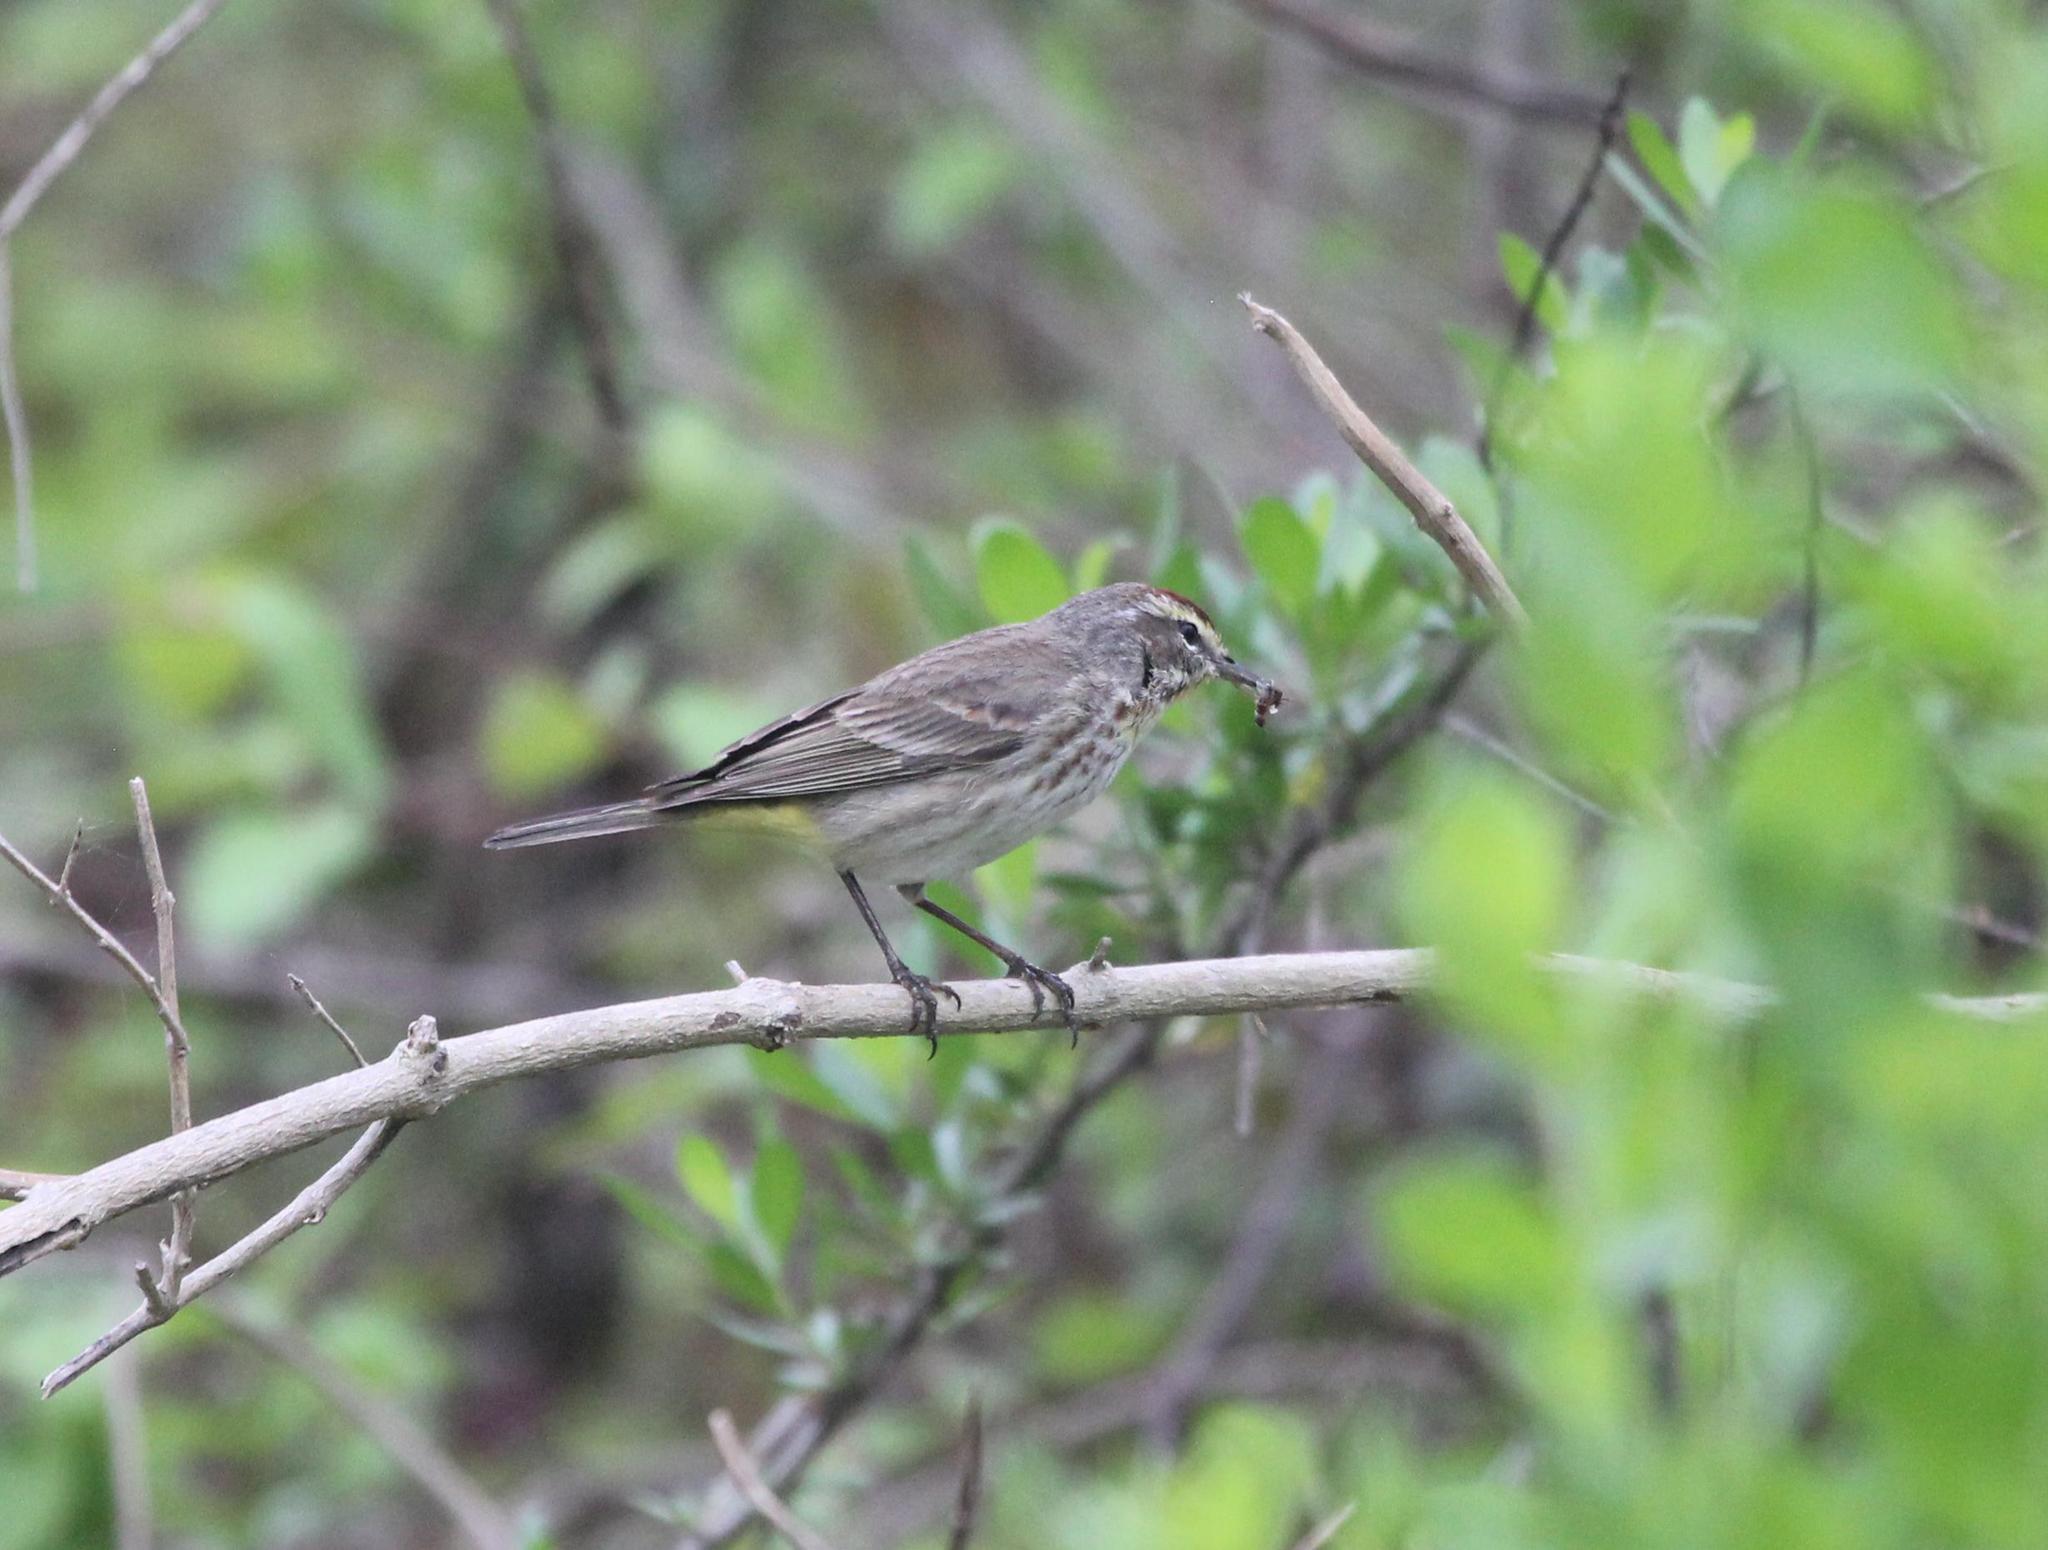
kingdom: Animalia
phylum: Chordata
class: Aves
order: Passeriformes
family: Parulidae
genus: Setophaga
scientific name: Setophaga palmarum
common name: Palm warbler
